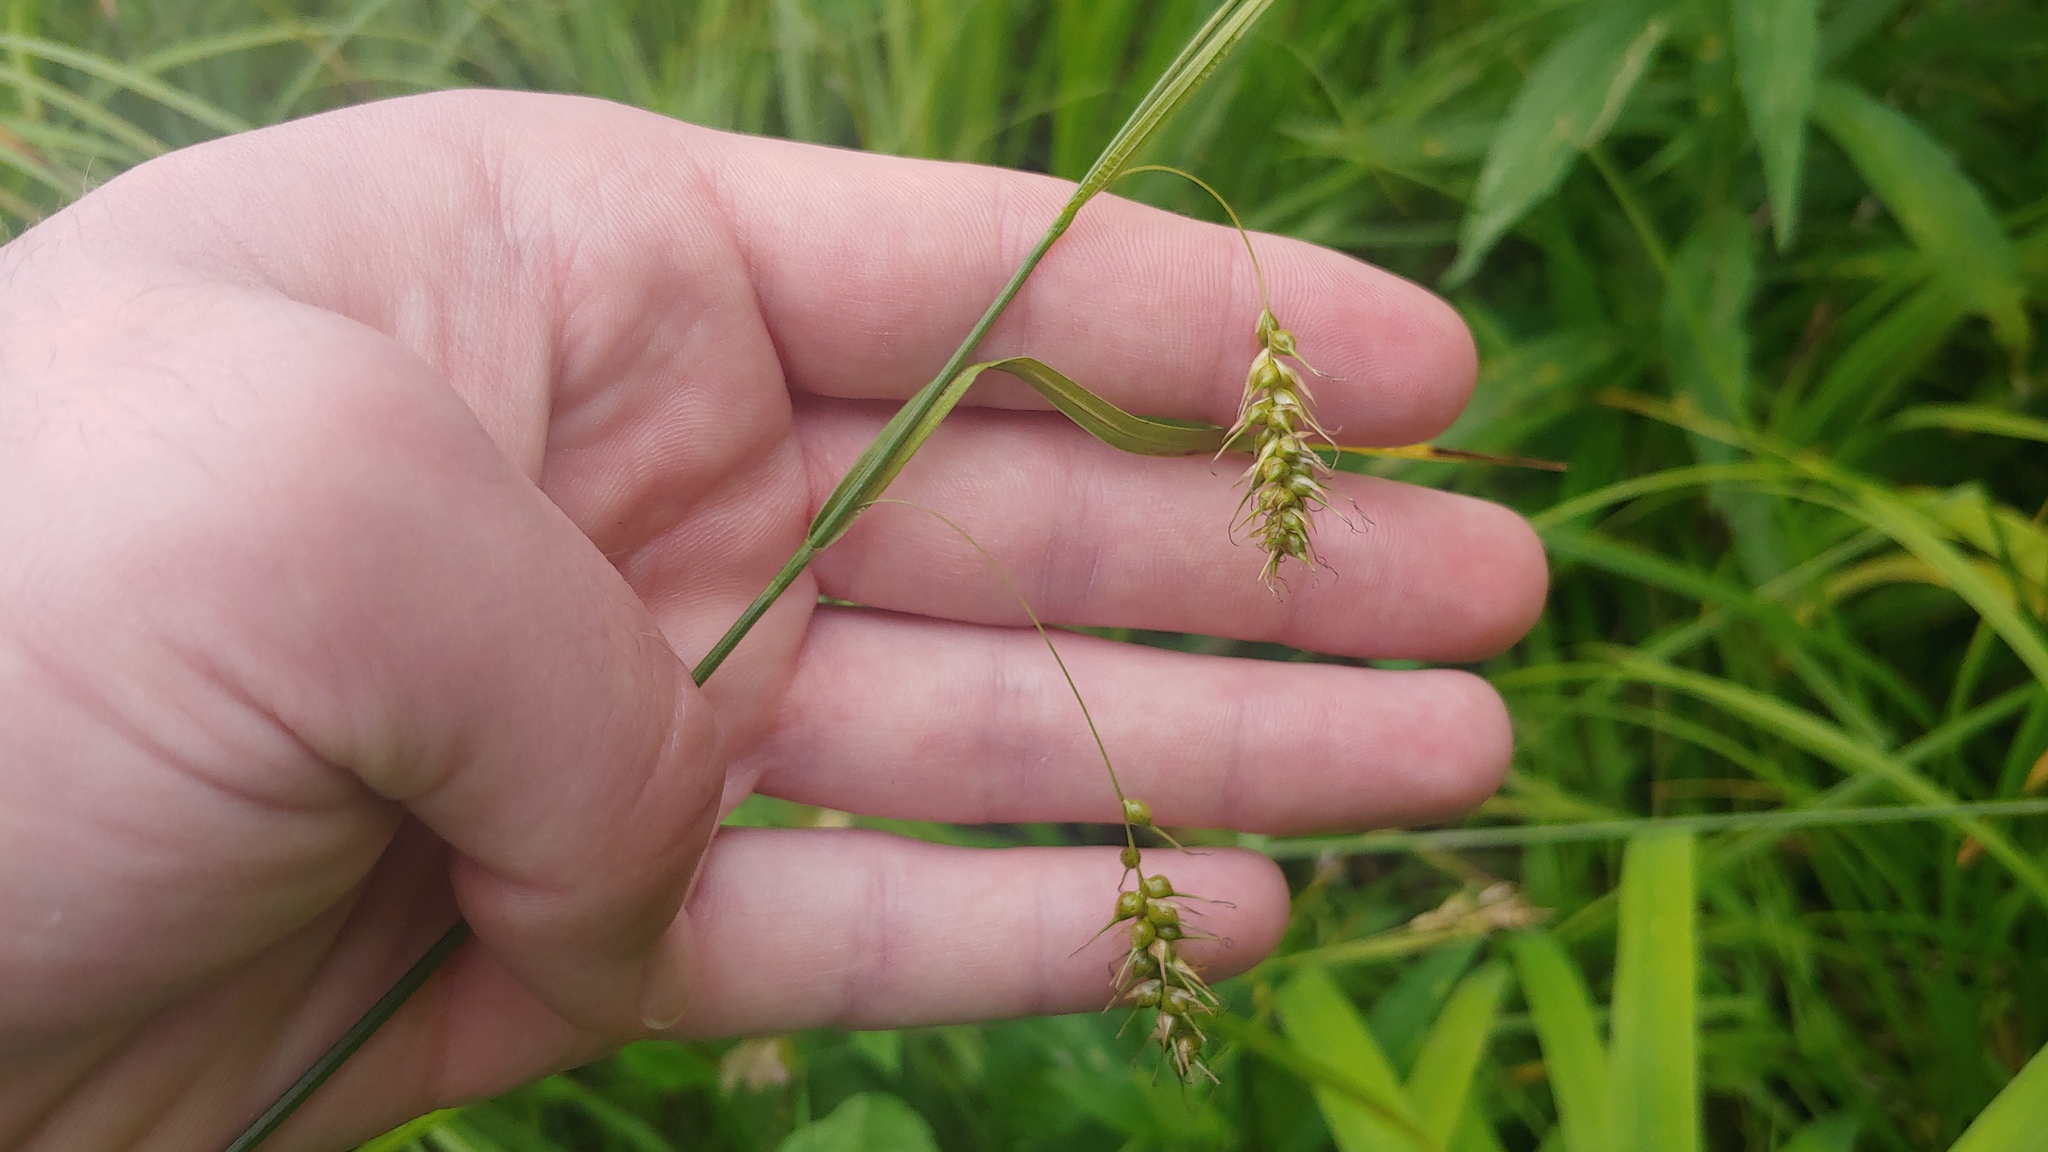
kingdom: Plantae
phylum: Tracheophyta
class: Liliopsida
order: Poales
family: Cyperaceae
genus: Carex
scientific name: Carex sprengelii
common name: Long-beaked sedge
